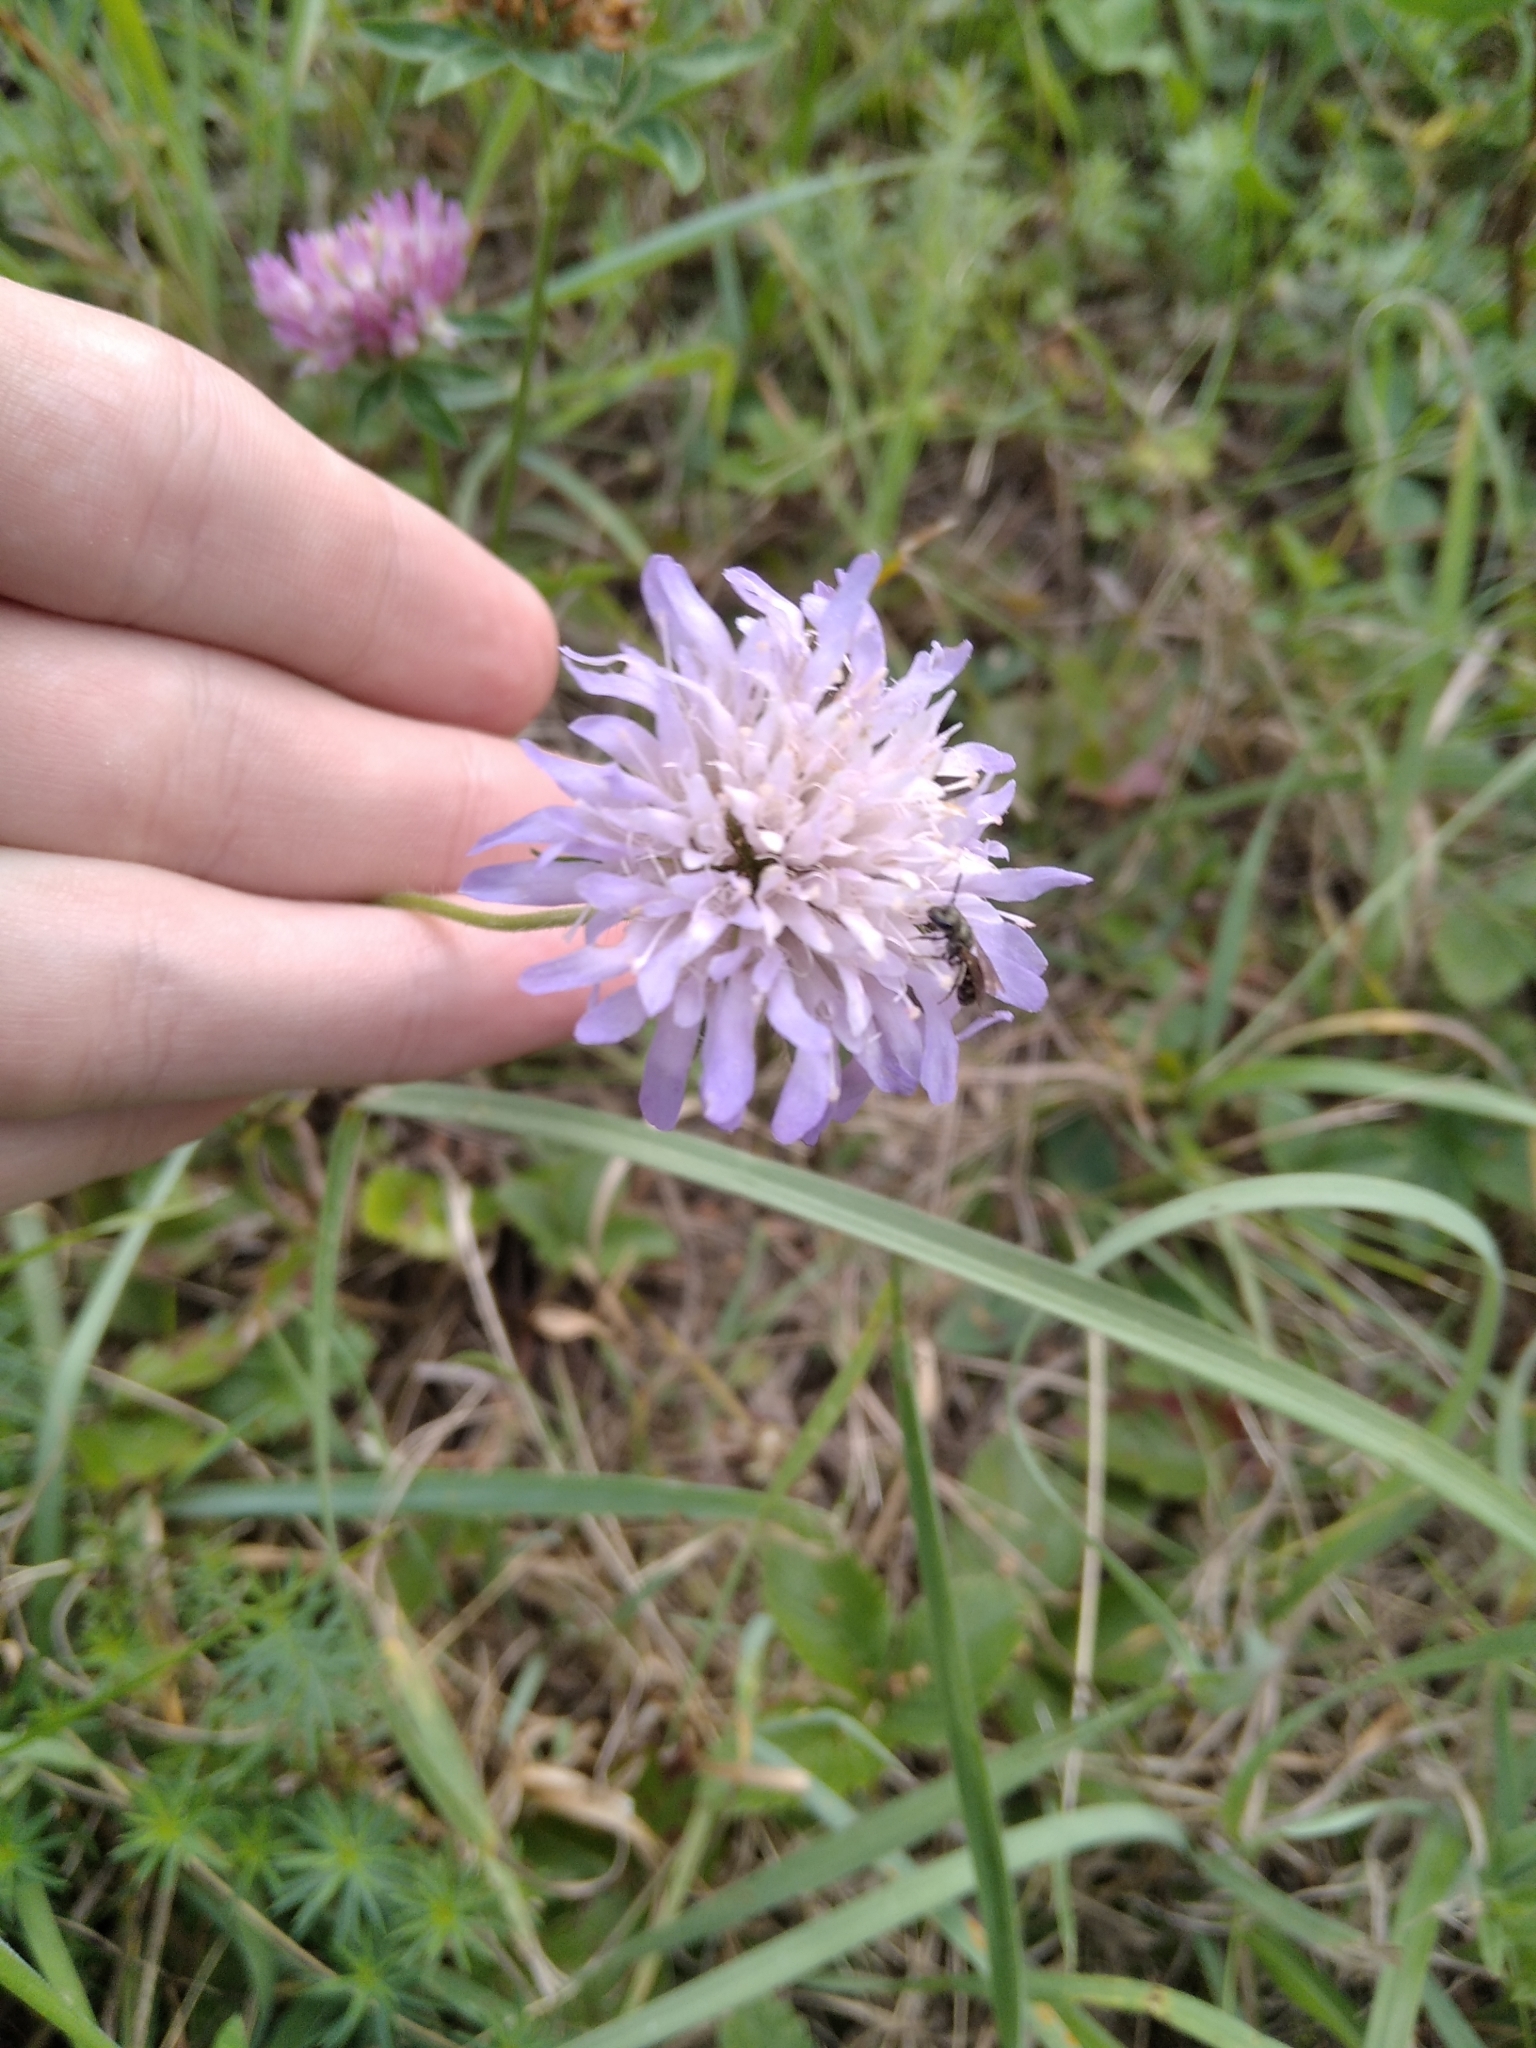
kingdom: Plantae
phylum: Tracheophyta
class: Magnoliopsida
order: Dipsacales
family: Caprifoliaceae
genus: Knautia
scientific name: Knautia arvensis
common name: Field scabiosa
